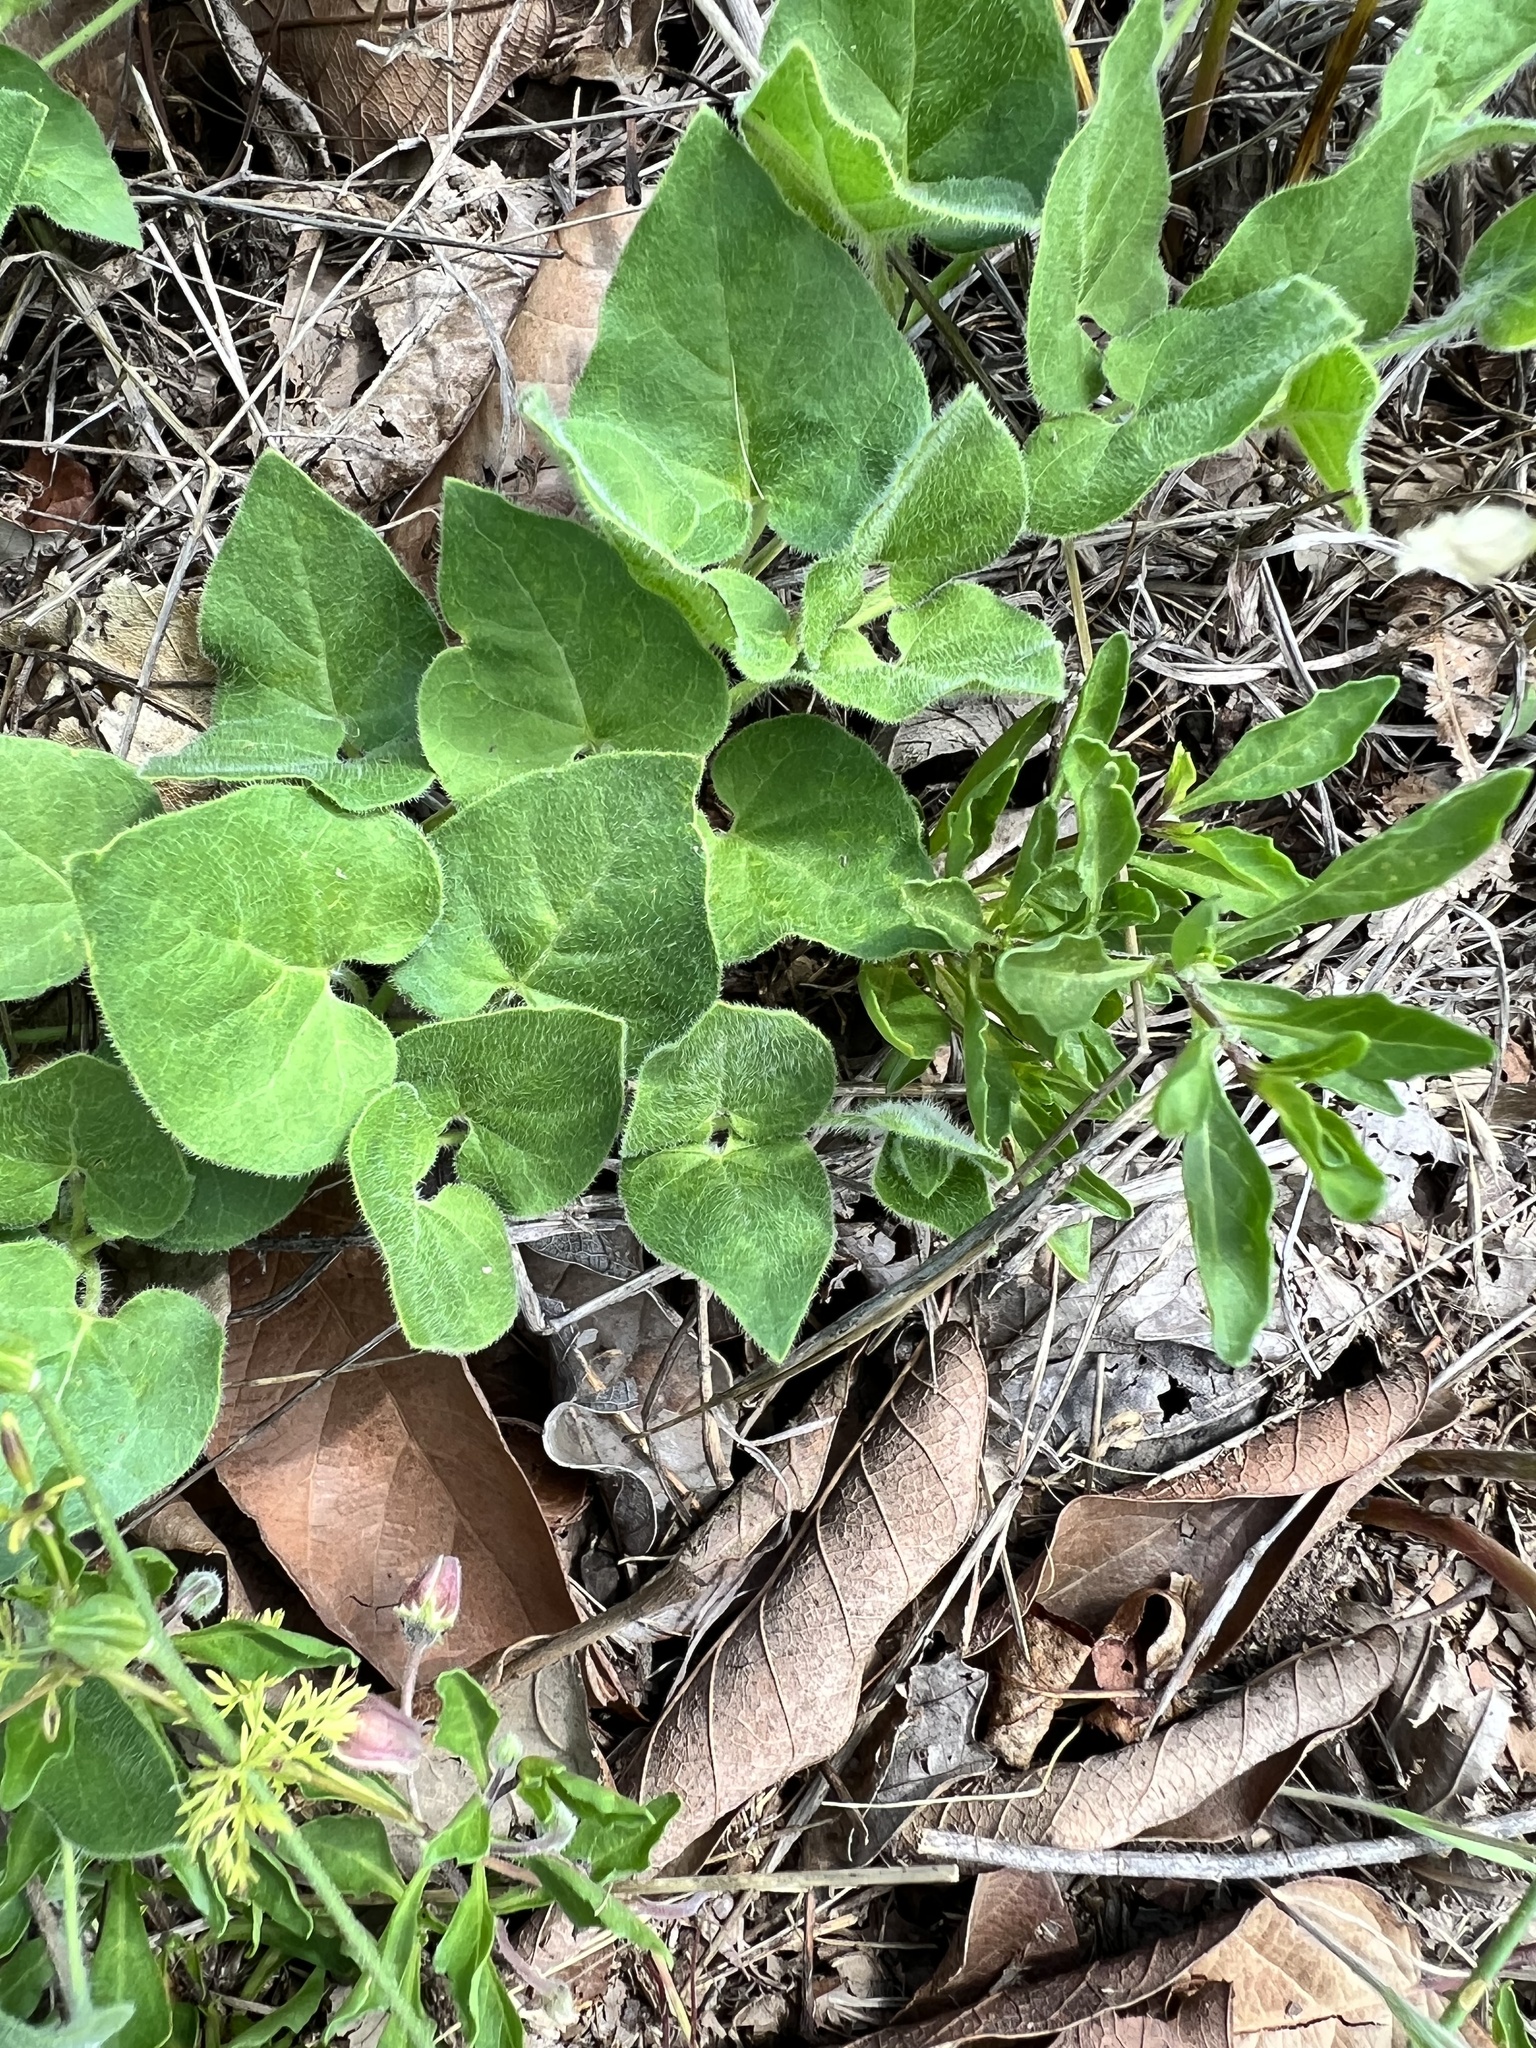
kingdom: Plantae
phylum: Tracheophyta
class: Magnoliopsida
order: Gentianales
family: Apocynaceae
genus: Chthamalia
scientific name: Chthamalia biflora
